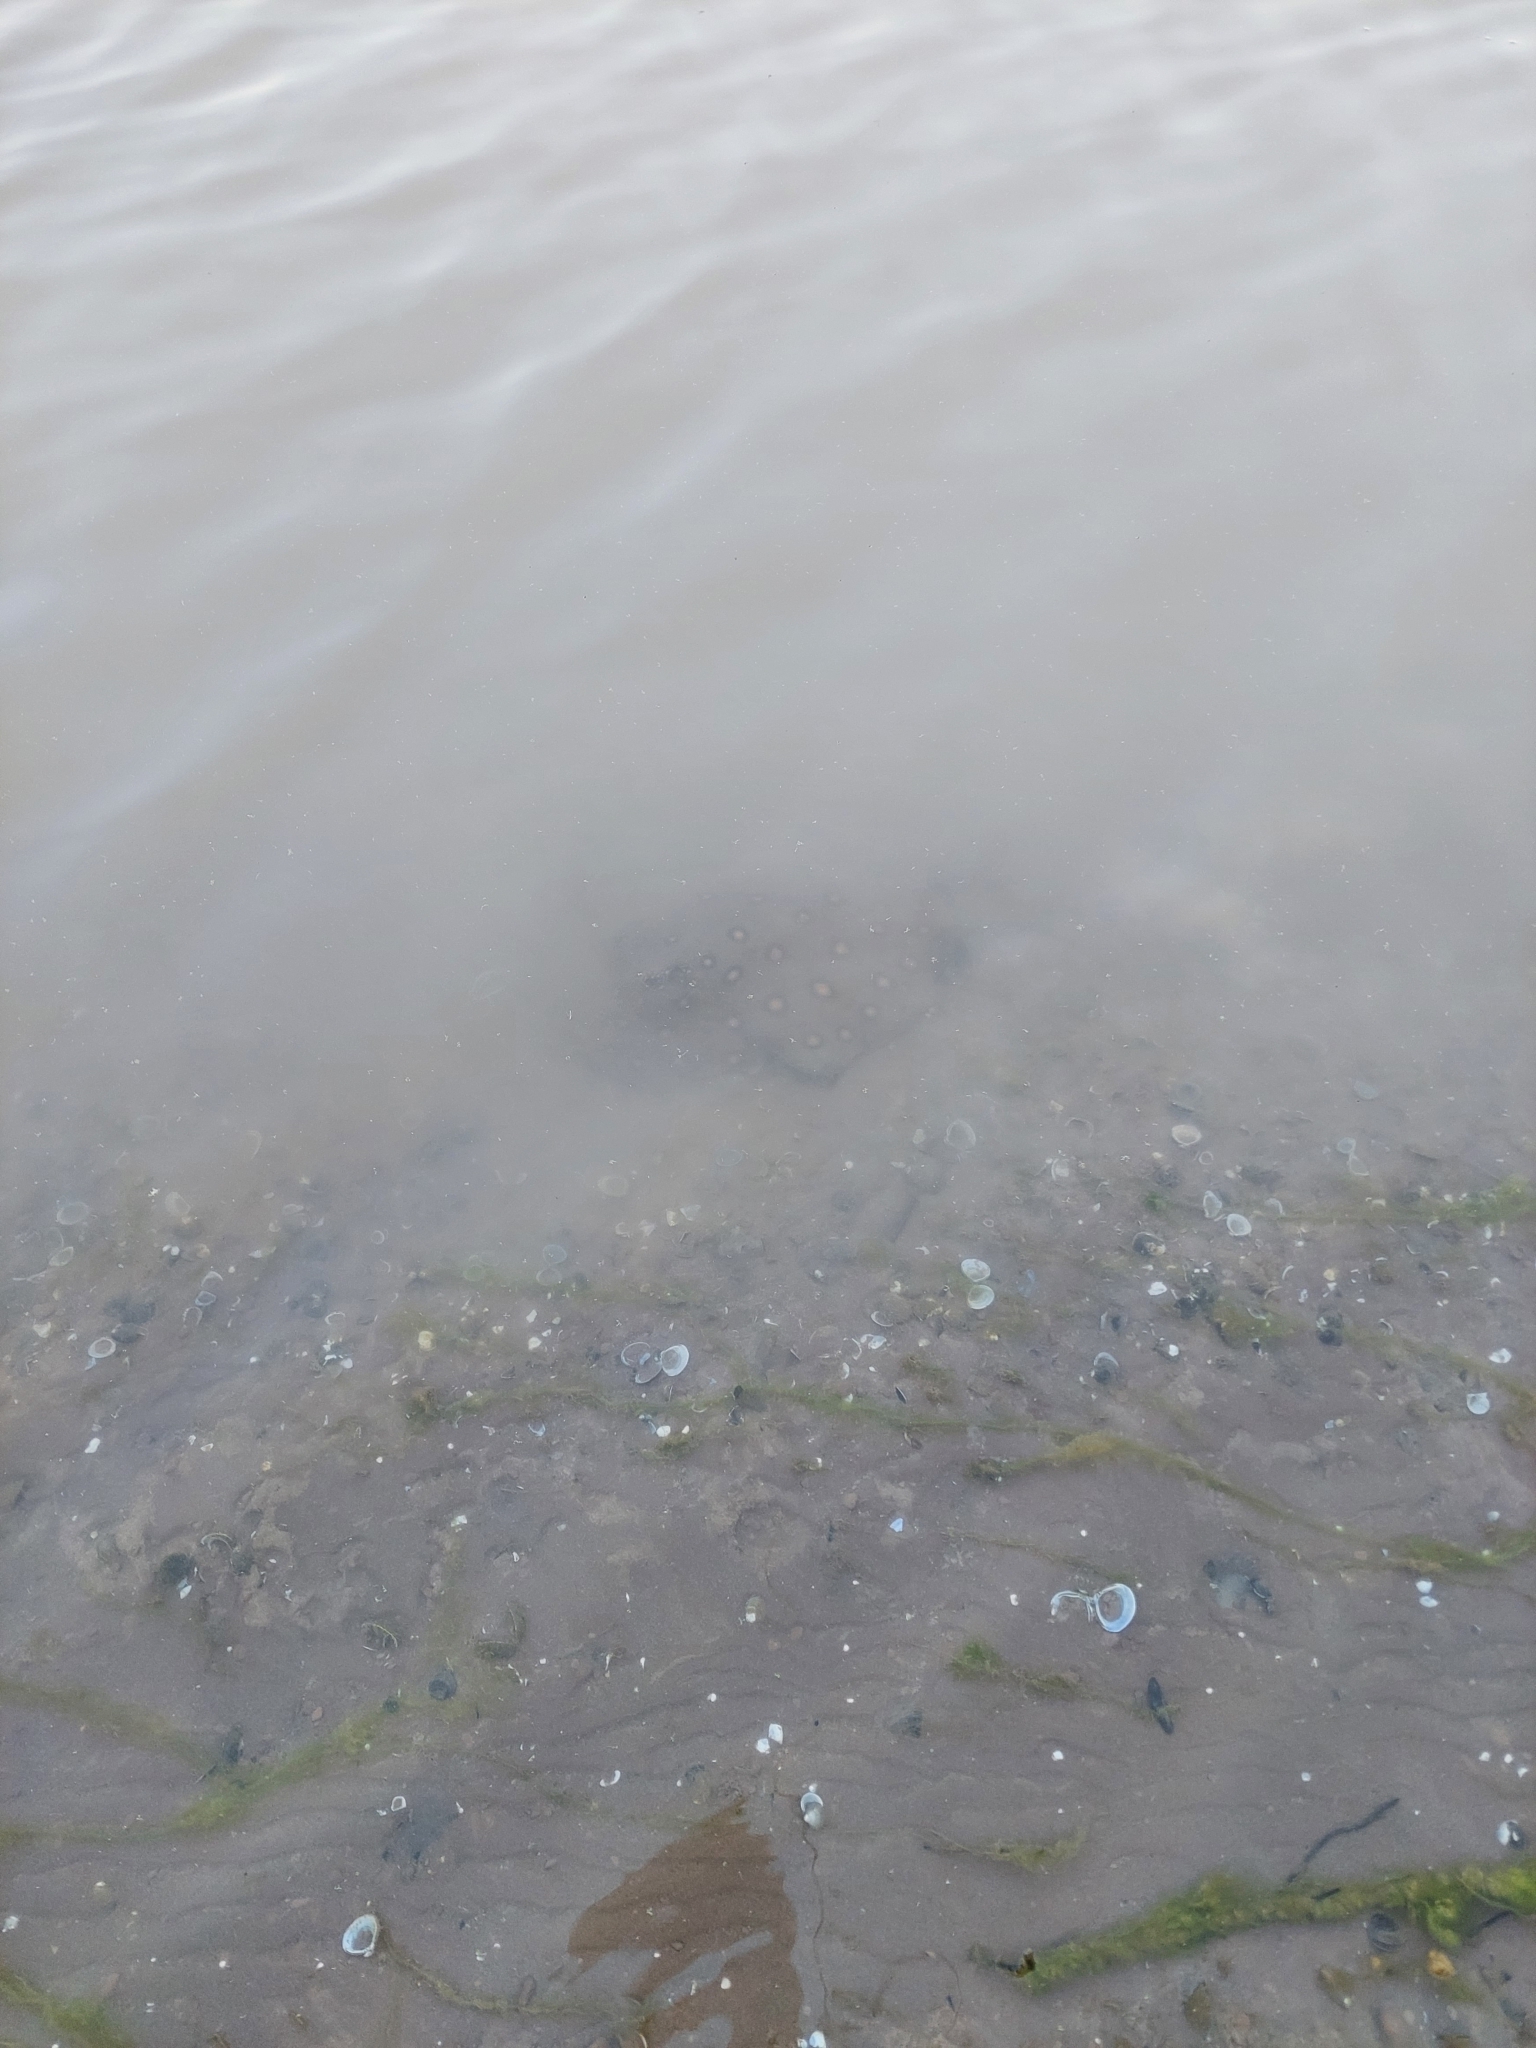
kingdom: Animalia
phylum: Chordata
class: Elasmobranchii
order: Myliobatiformes
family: Potamotrygonidae
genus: Potamotrygon
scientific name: Potamotrygon motoro
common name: South american freshwater stingray
